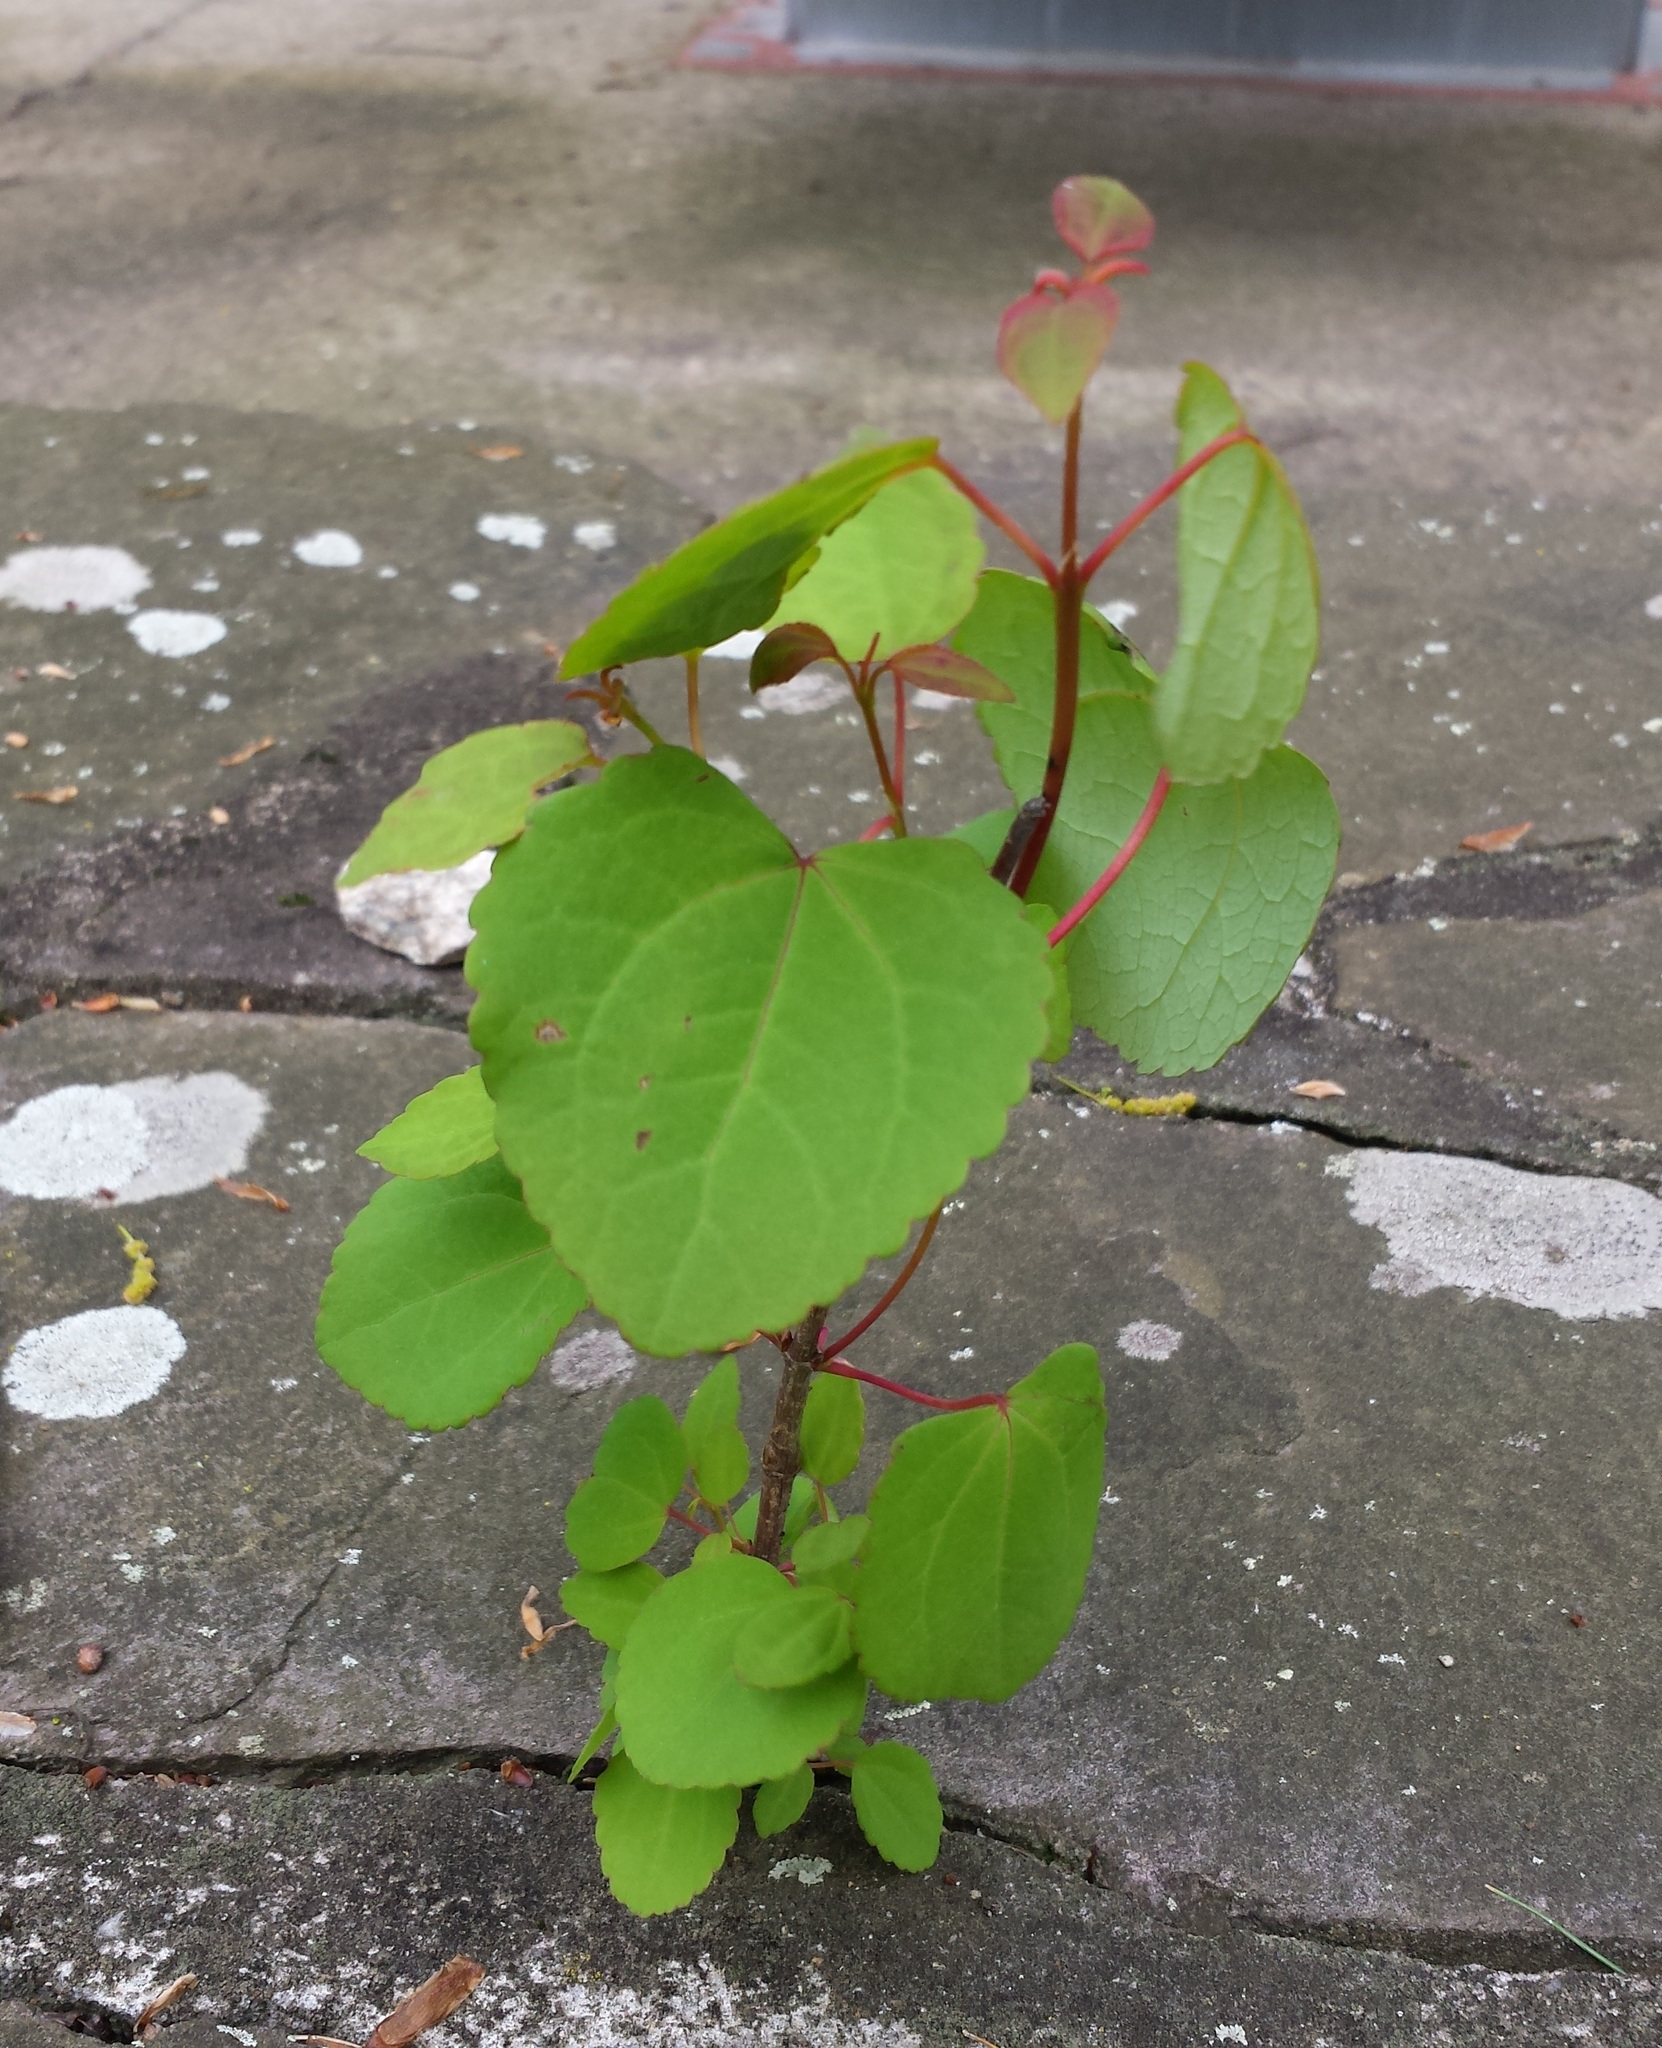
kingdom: Plantae
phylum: Tracheophyta
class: Magnoliopsida
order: Saxifragales
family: Cercidiphyllaceae
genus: Cercidiphyllum
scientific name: Cercidiphyllum japonicum
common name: Katsura tree
